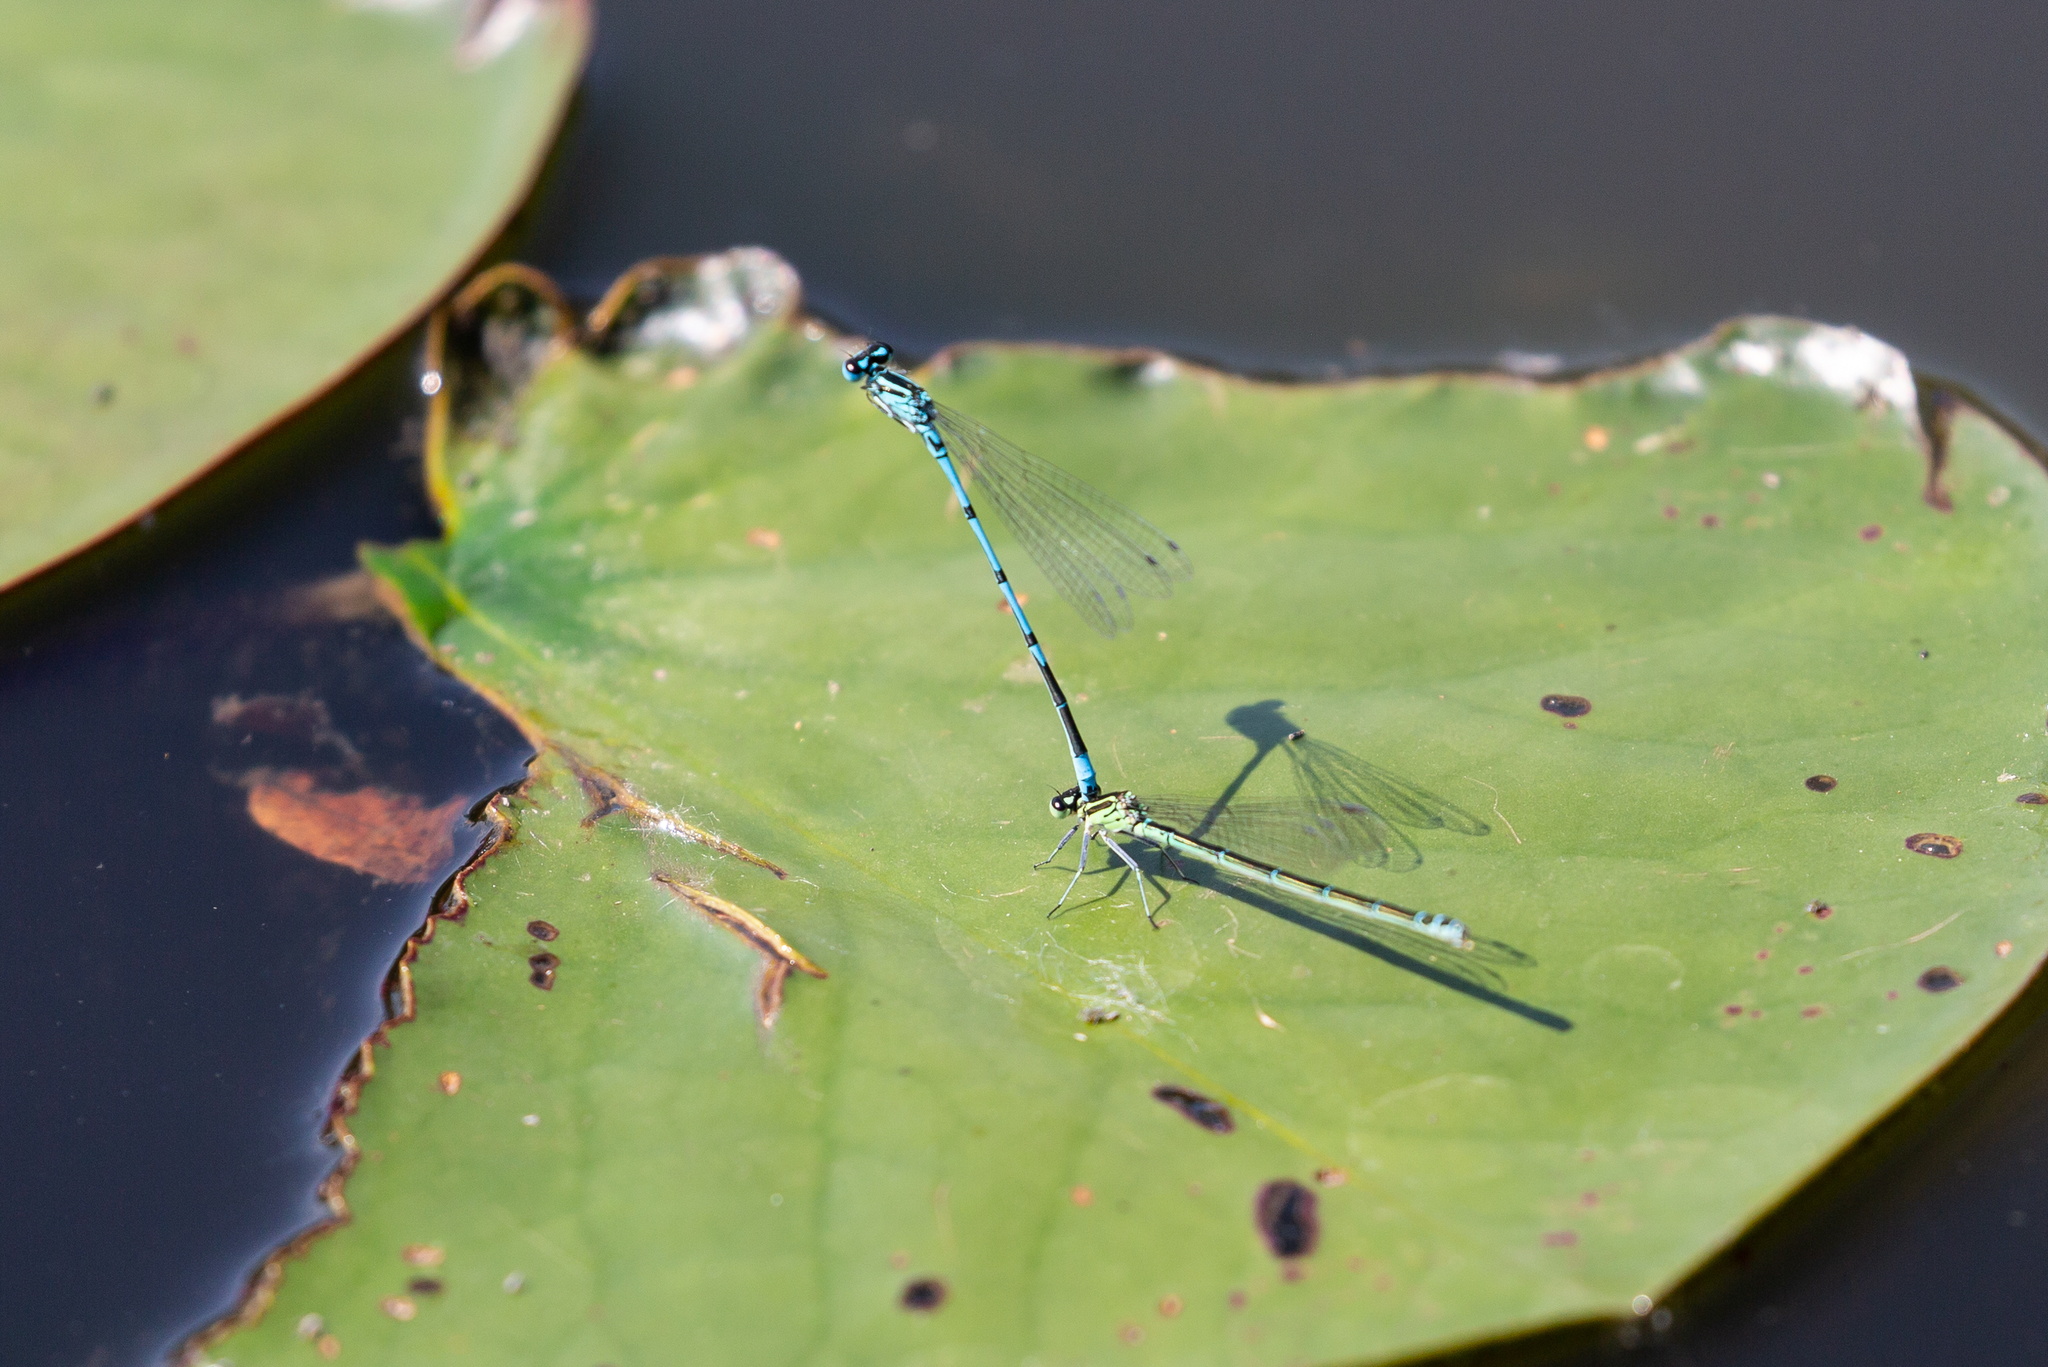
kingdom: Animalia
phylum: Arthropoda
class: Insecta
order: Odonata
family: Coenagrionidae
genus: Coenagrion
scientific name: Coenagrion puella
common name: Azure damselfly
